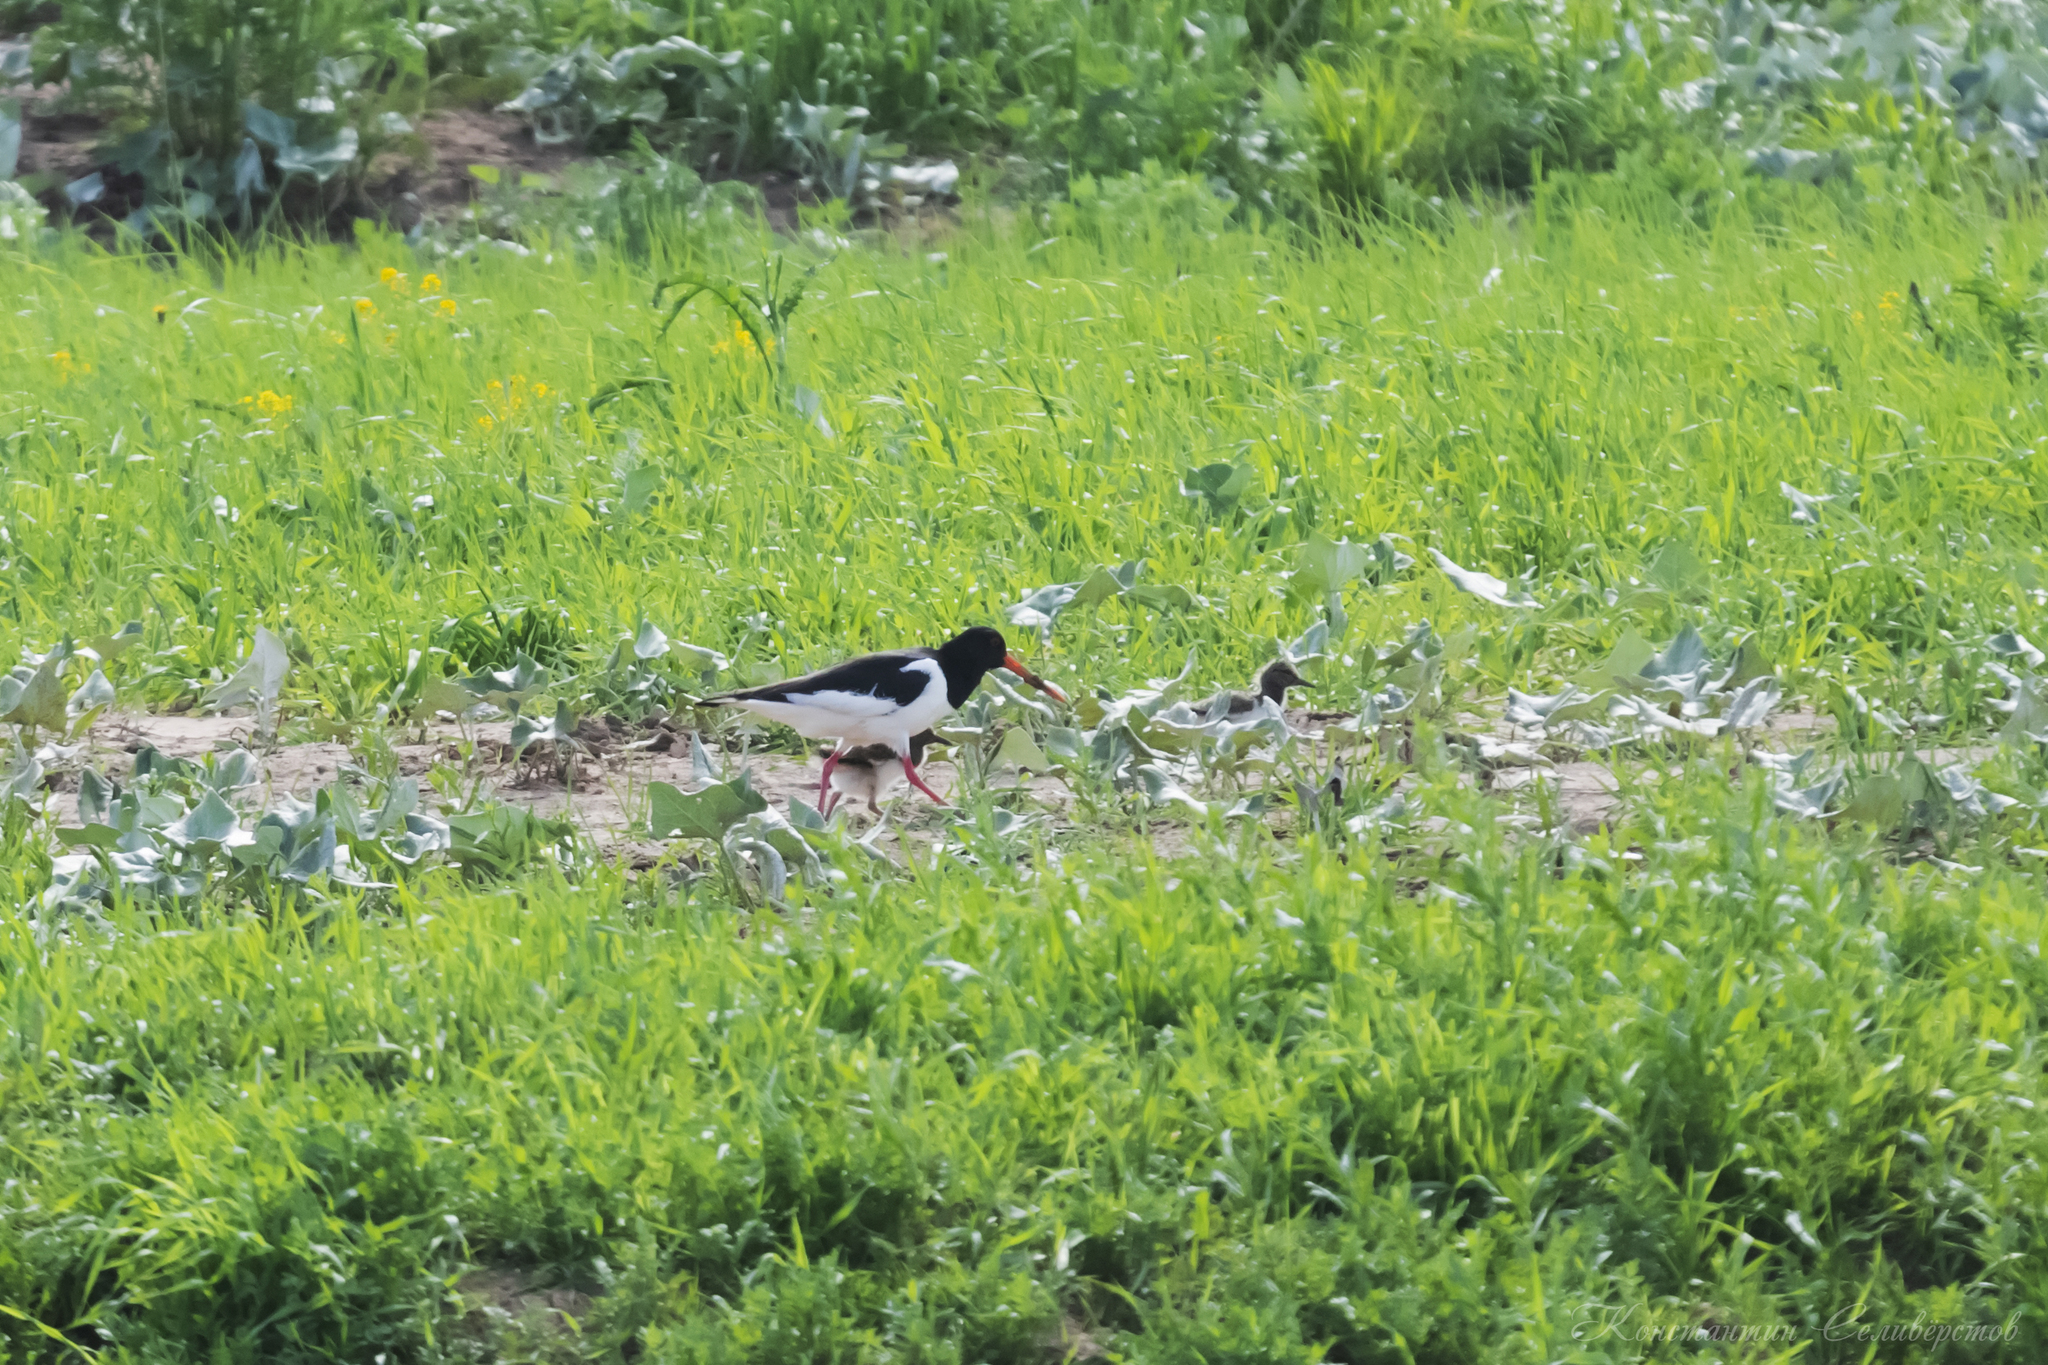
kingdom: Animalia
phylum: Chordata
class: Aves
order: Charadriiformes
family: Haematopodidae
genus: Haematopus
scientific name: Haematopus ostralegus
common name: Eurasian oystercatcher
